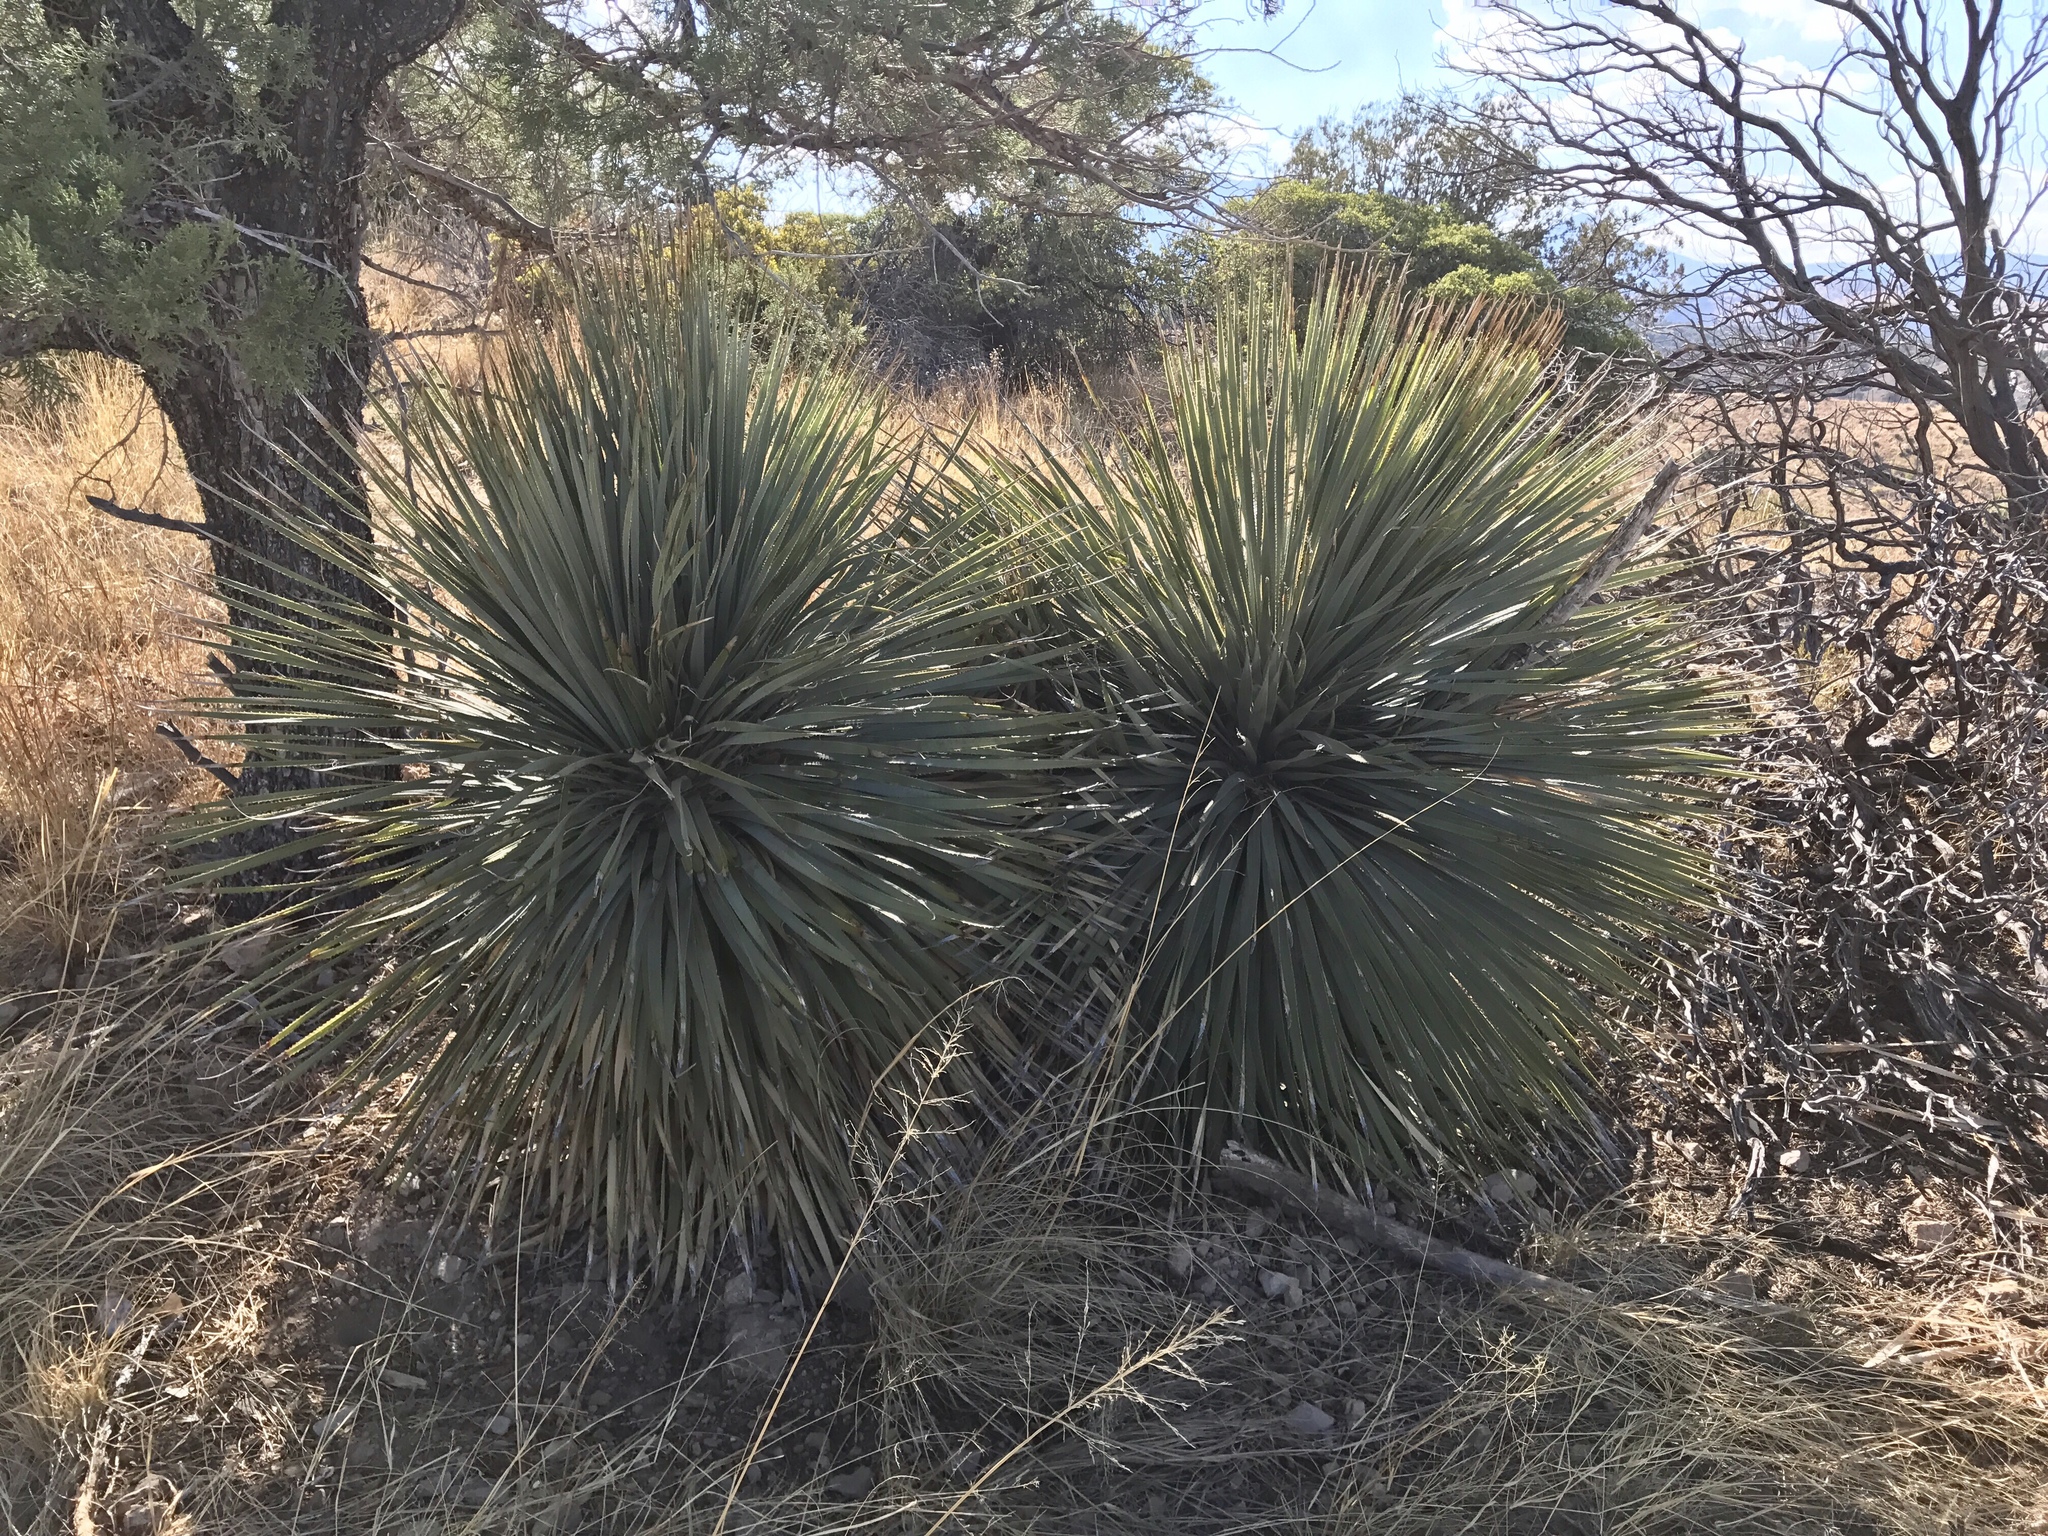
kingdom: Plantae
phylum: Tracheophyta
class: Liliopsida
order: Asparagales
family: Asparagaceae
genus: Dasylirion
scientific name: Dasylirion wheeleri
